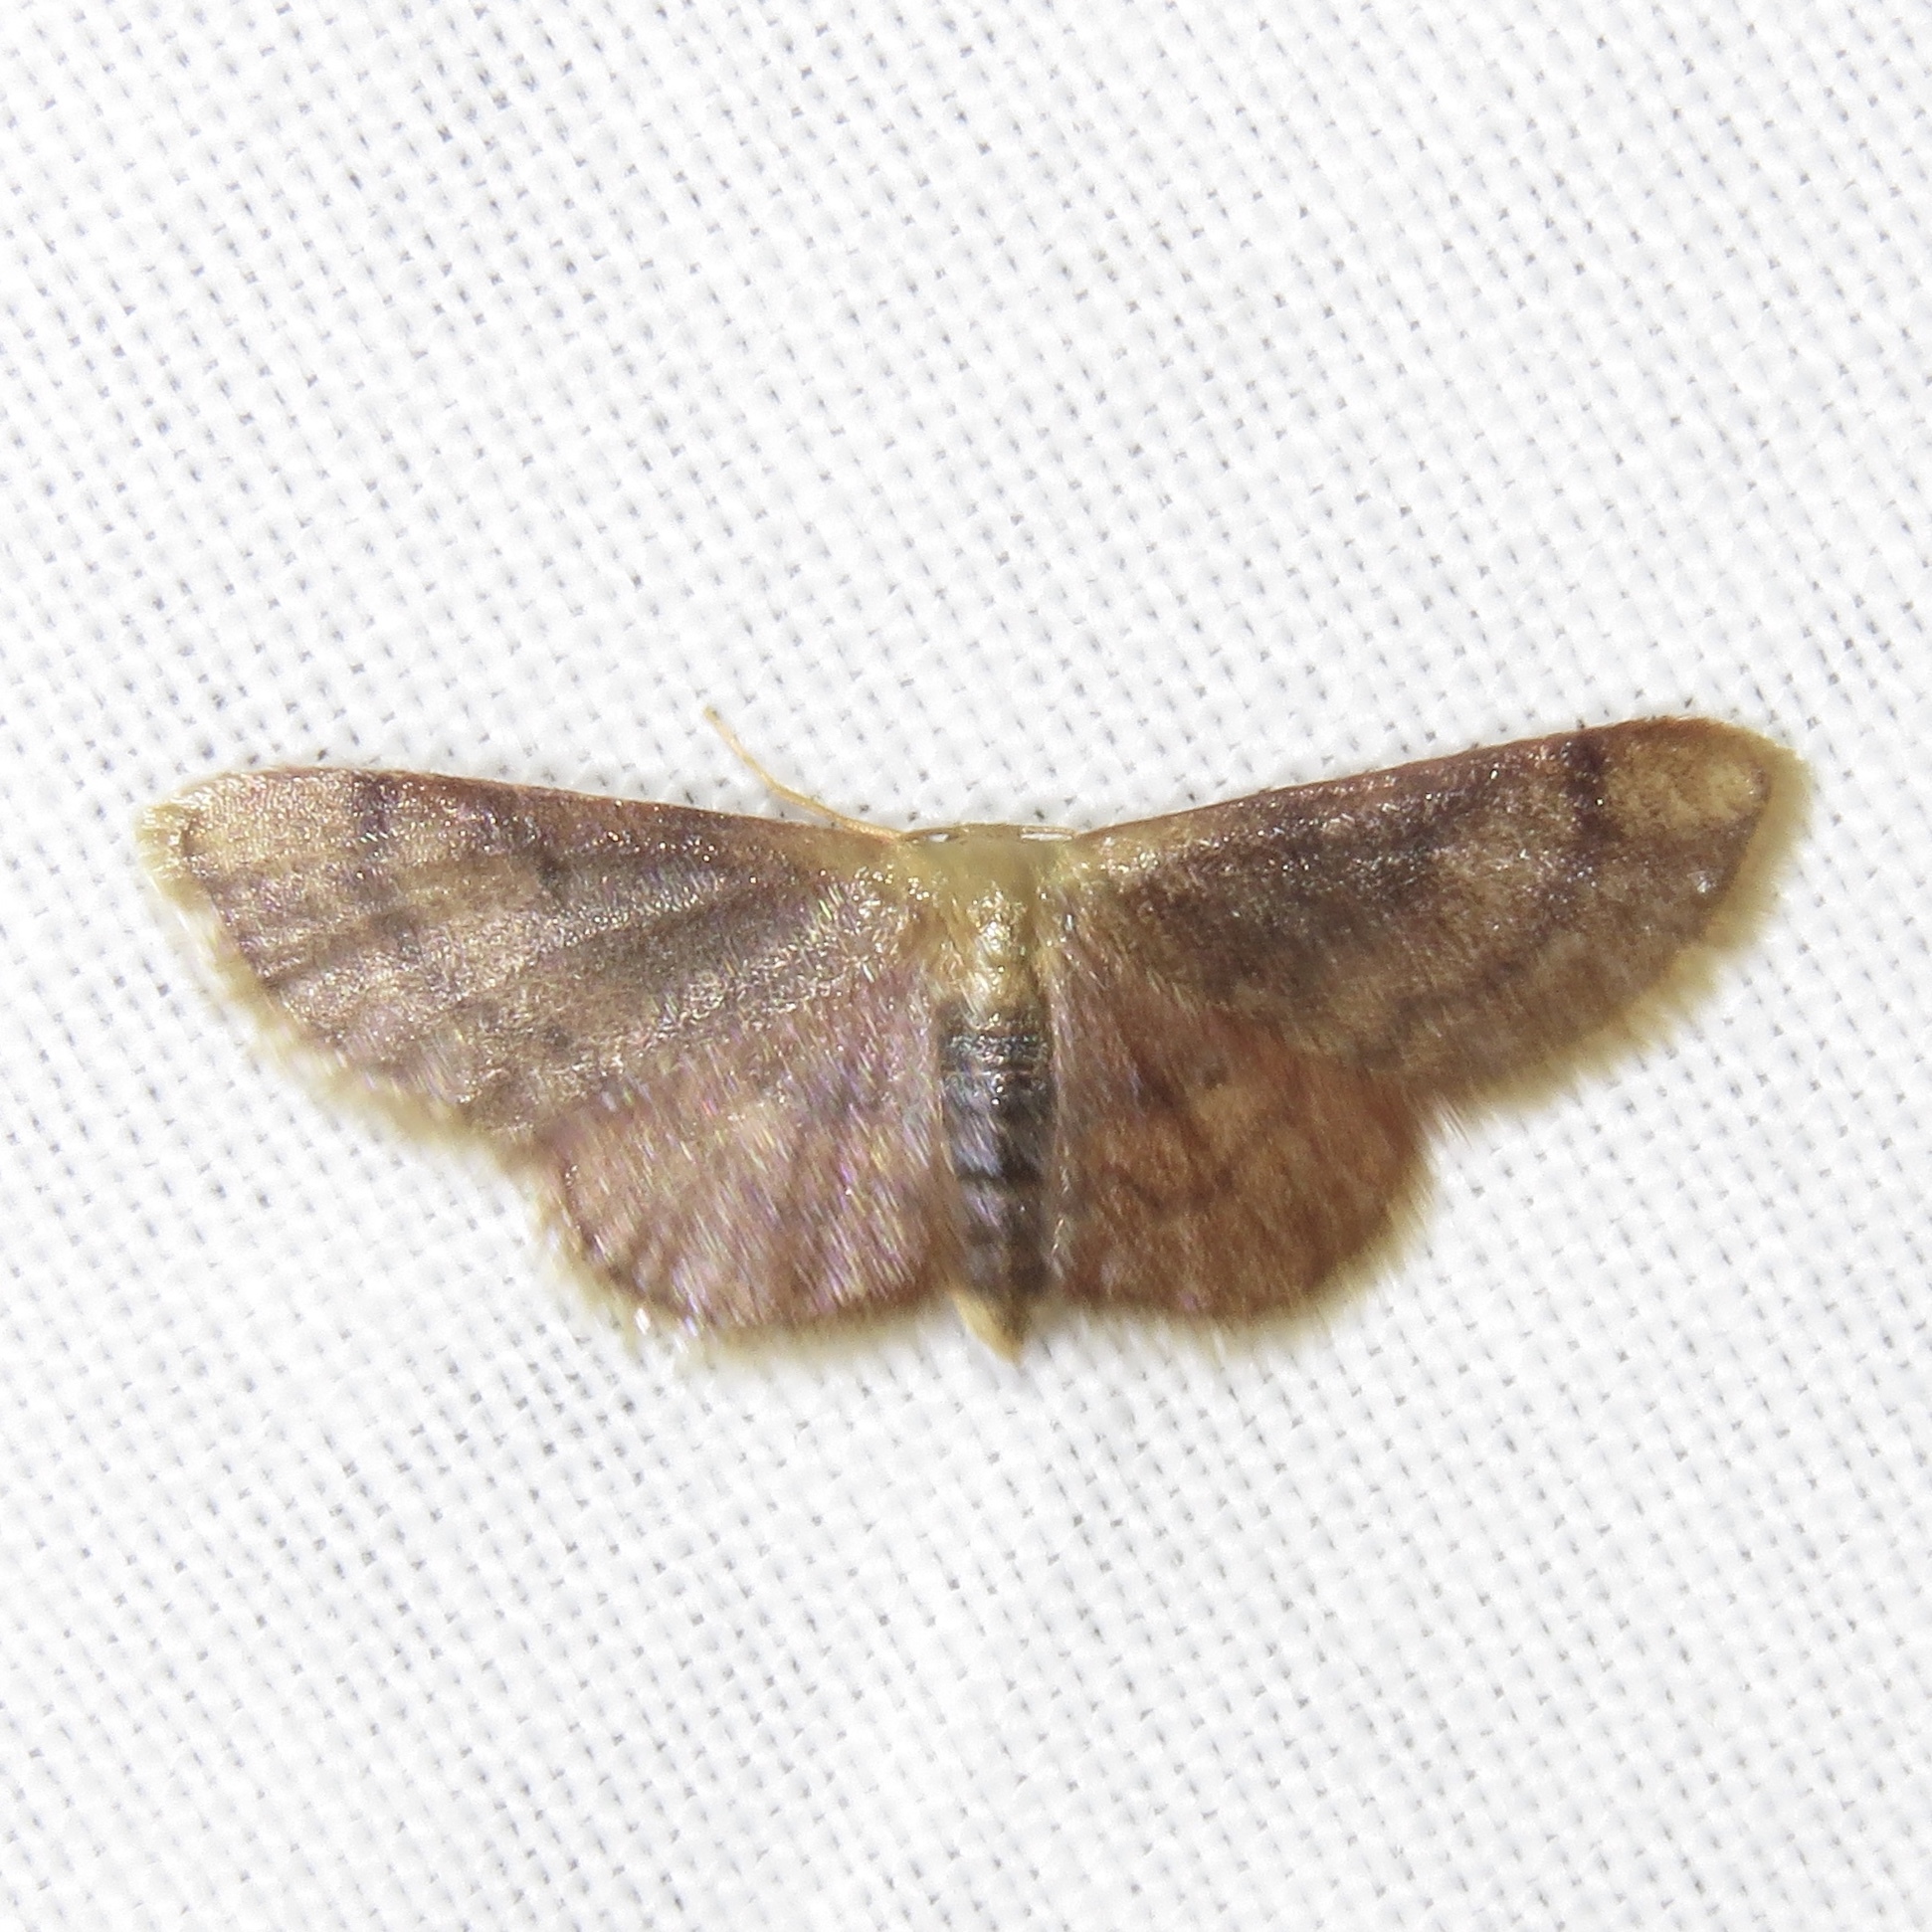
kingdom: Animalia
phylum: Arthropoda
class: Insecta
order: Lepidoptera
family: Geometridae
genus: Idaea
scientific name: Idaea demissaria
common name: Red-bordered wave
